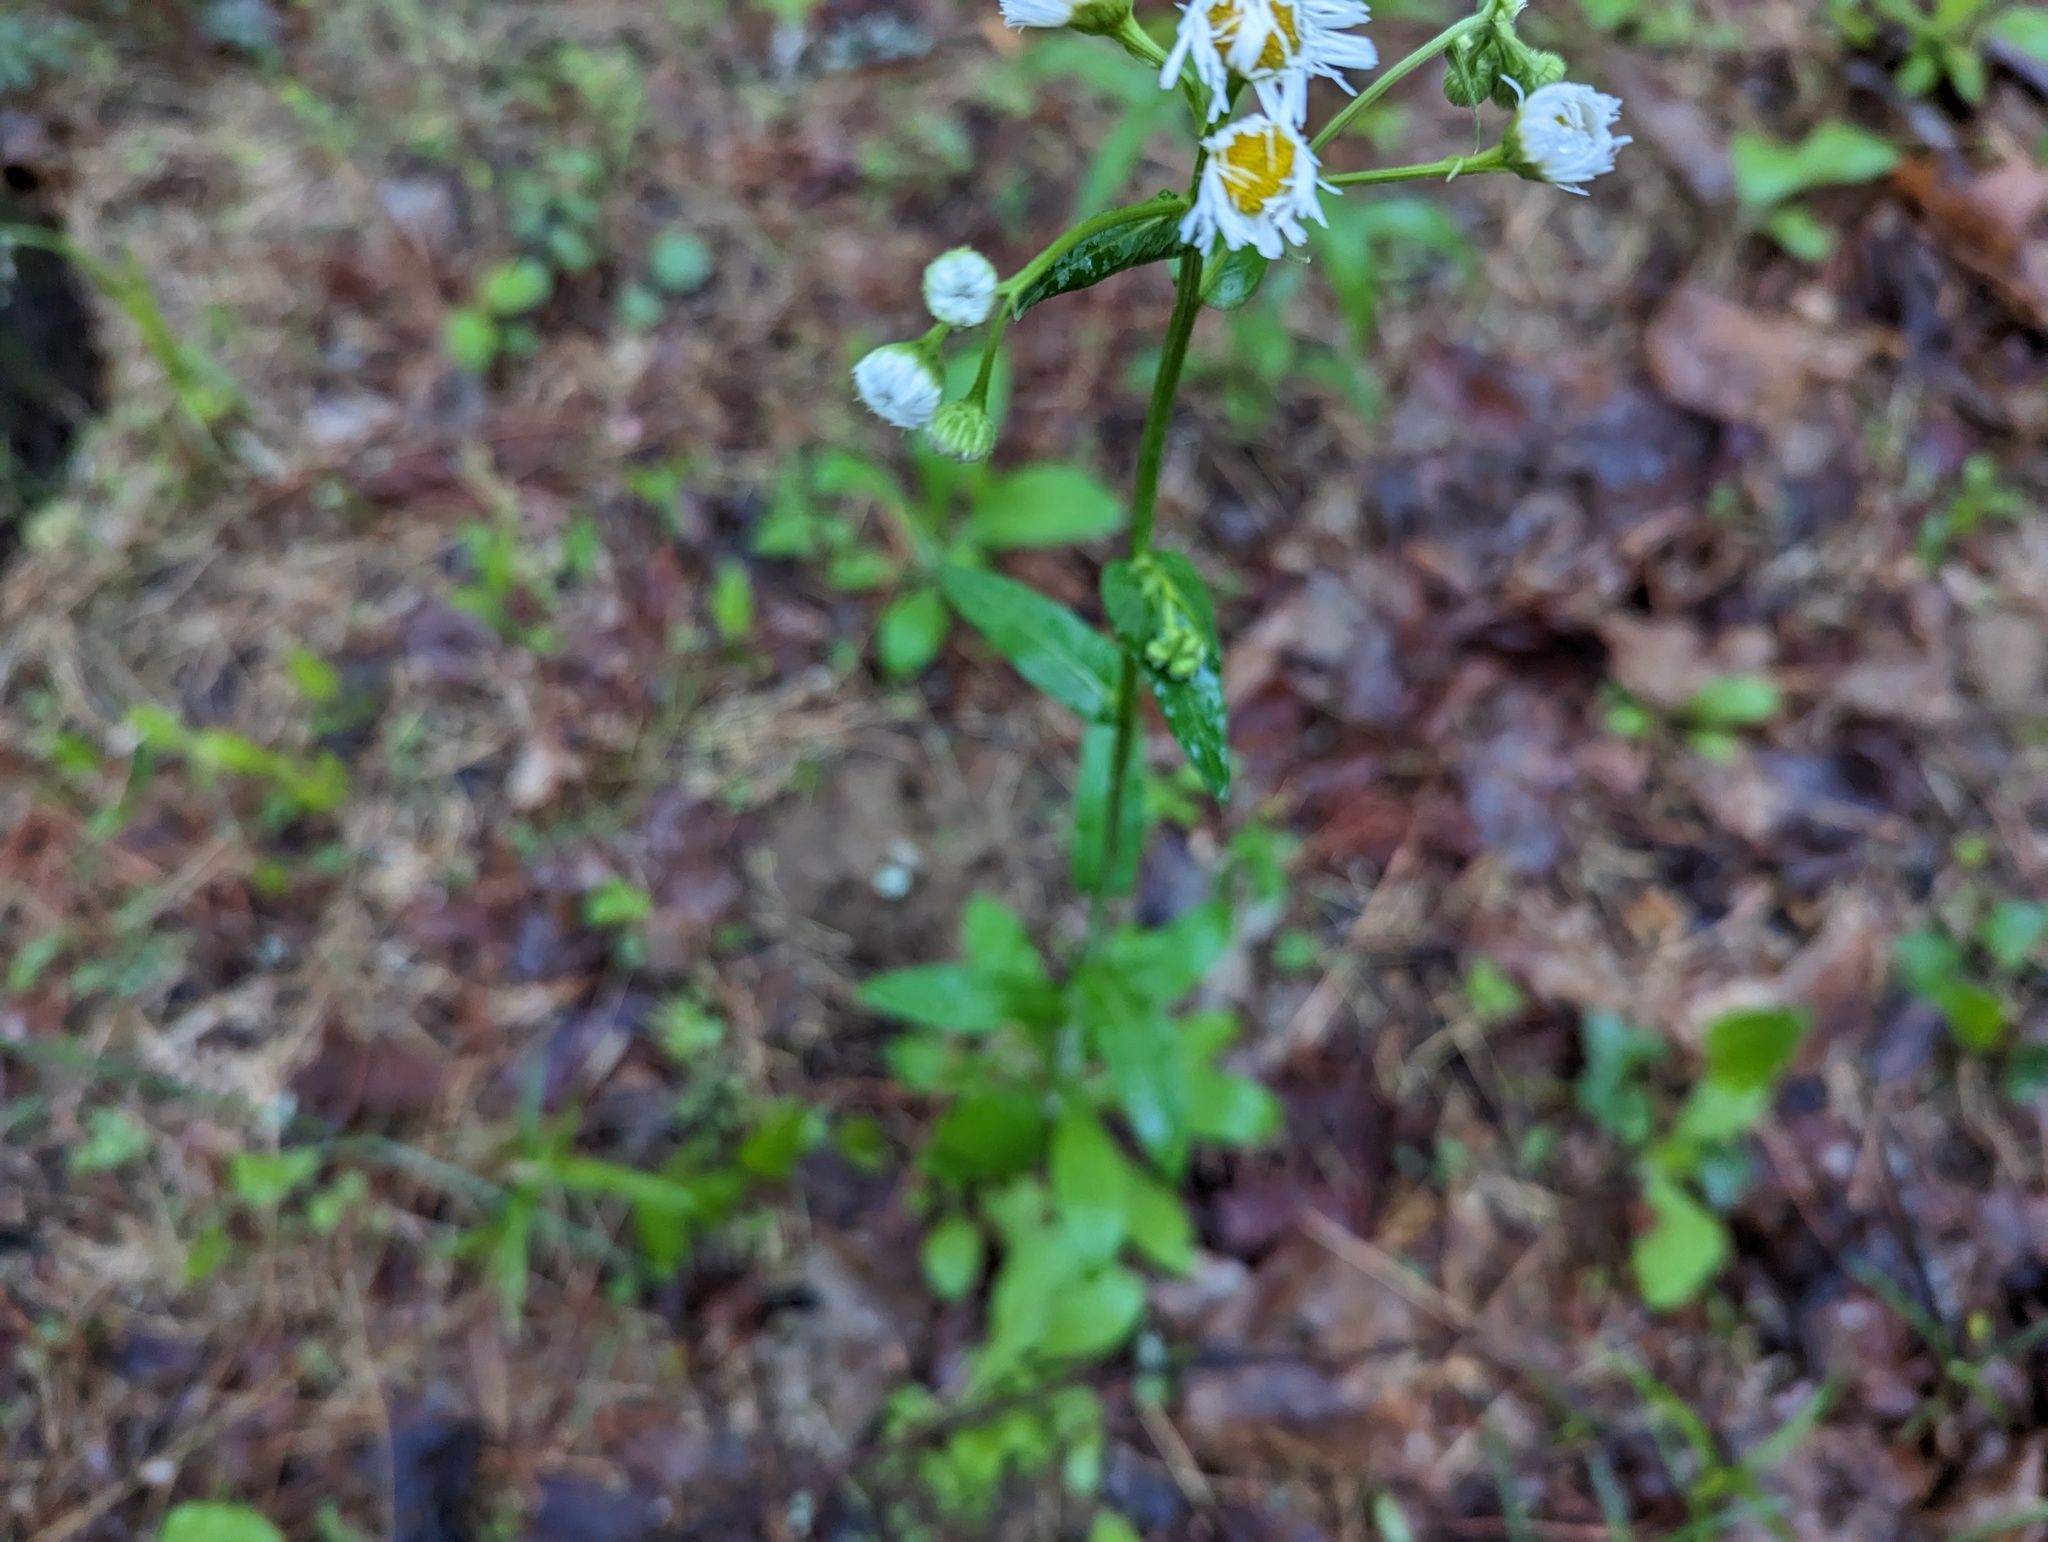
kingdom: Plantae
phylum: Tracheophyta
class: Magnoliopsida
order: Asterales
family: Asteraceae
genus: Erigeron
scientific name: Erigeron philadelphicus
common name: Robin's-plantain
